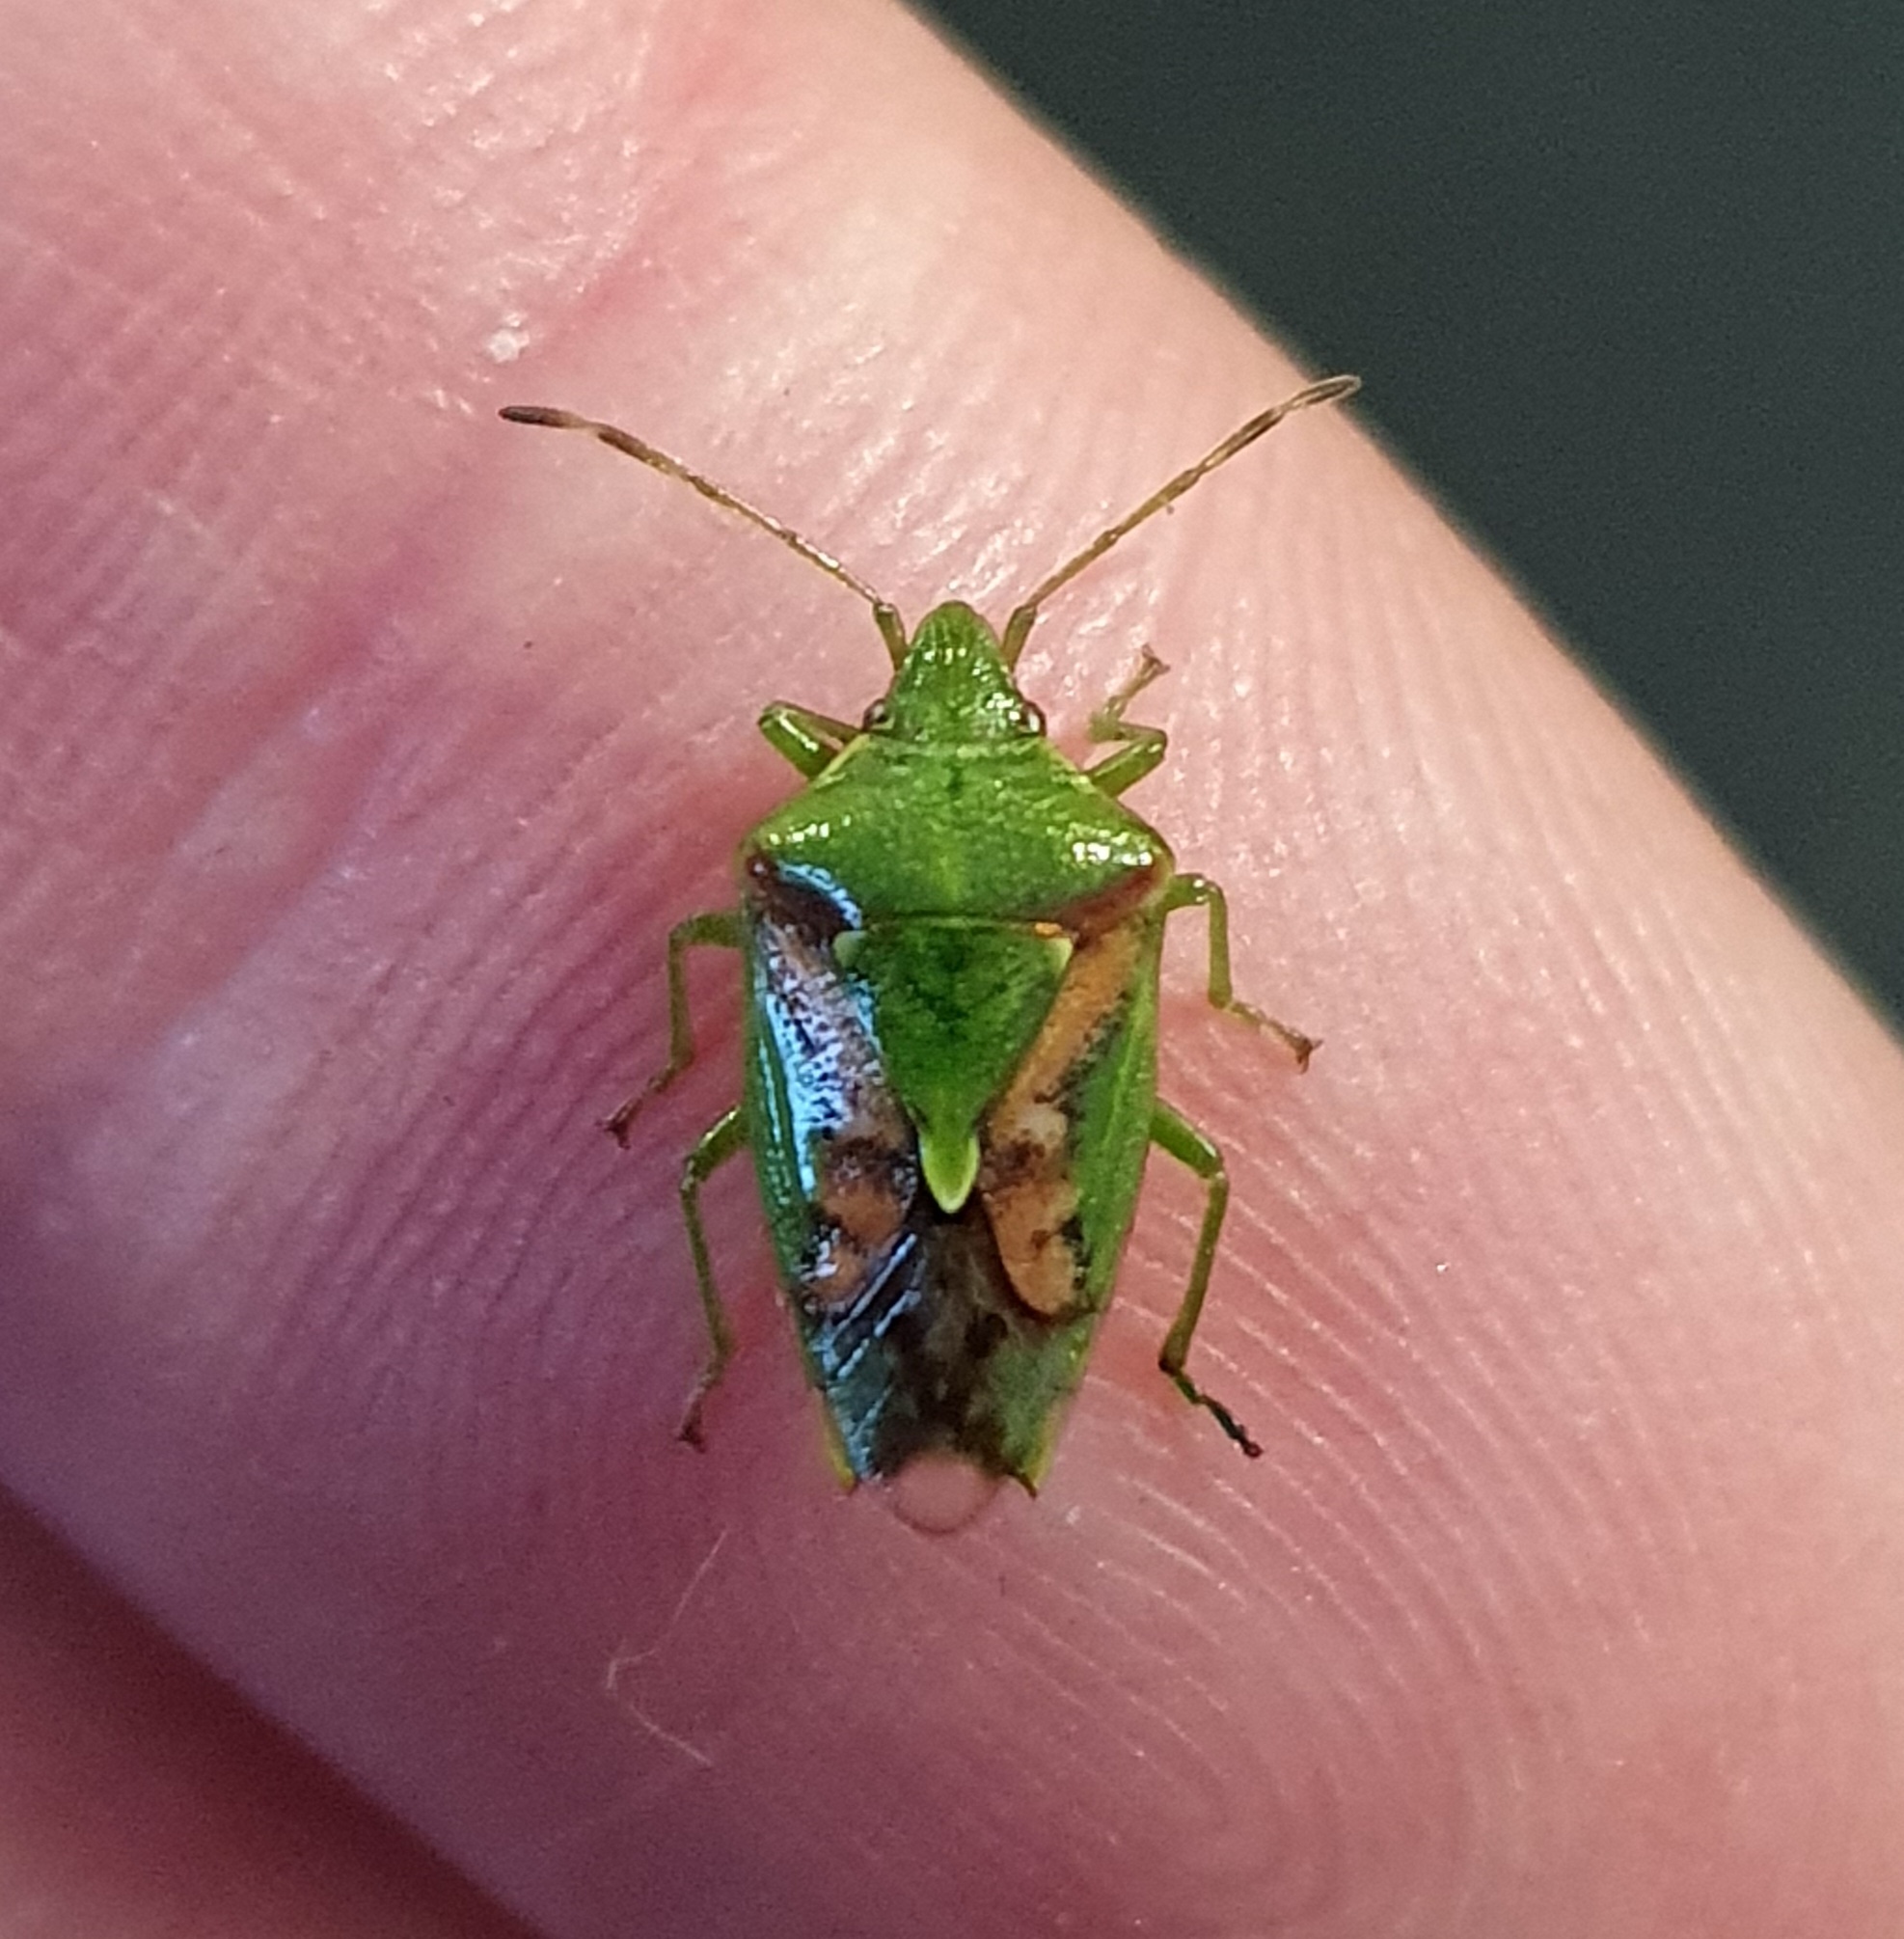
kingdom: Animalia
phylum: Arthropoda
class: Insecta
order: Hemiptera
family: Acanthosomatidae
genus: Cyphostethus
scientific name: Cyphostethus tristriatus
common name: Juniper shieldbug
